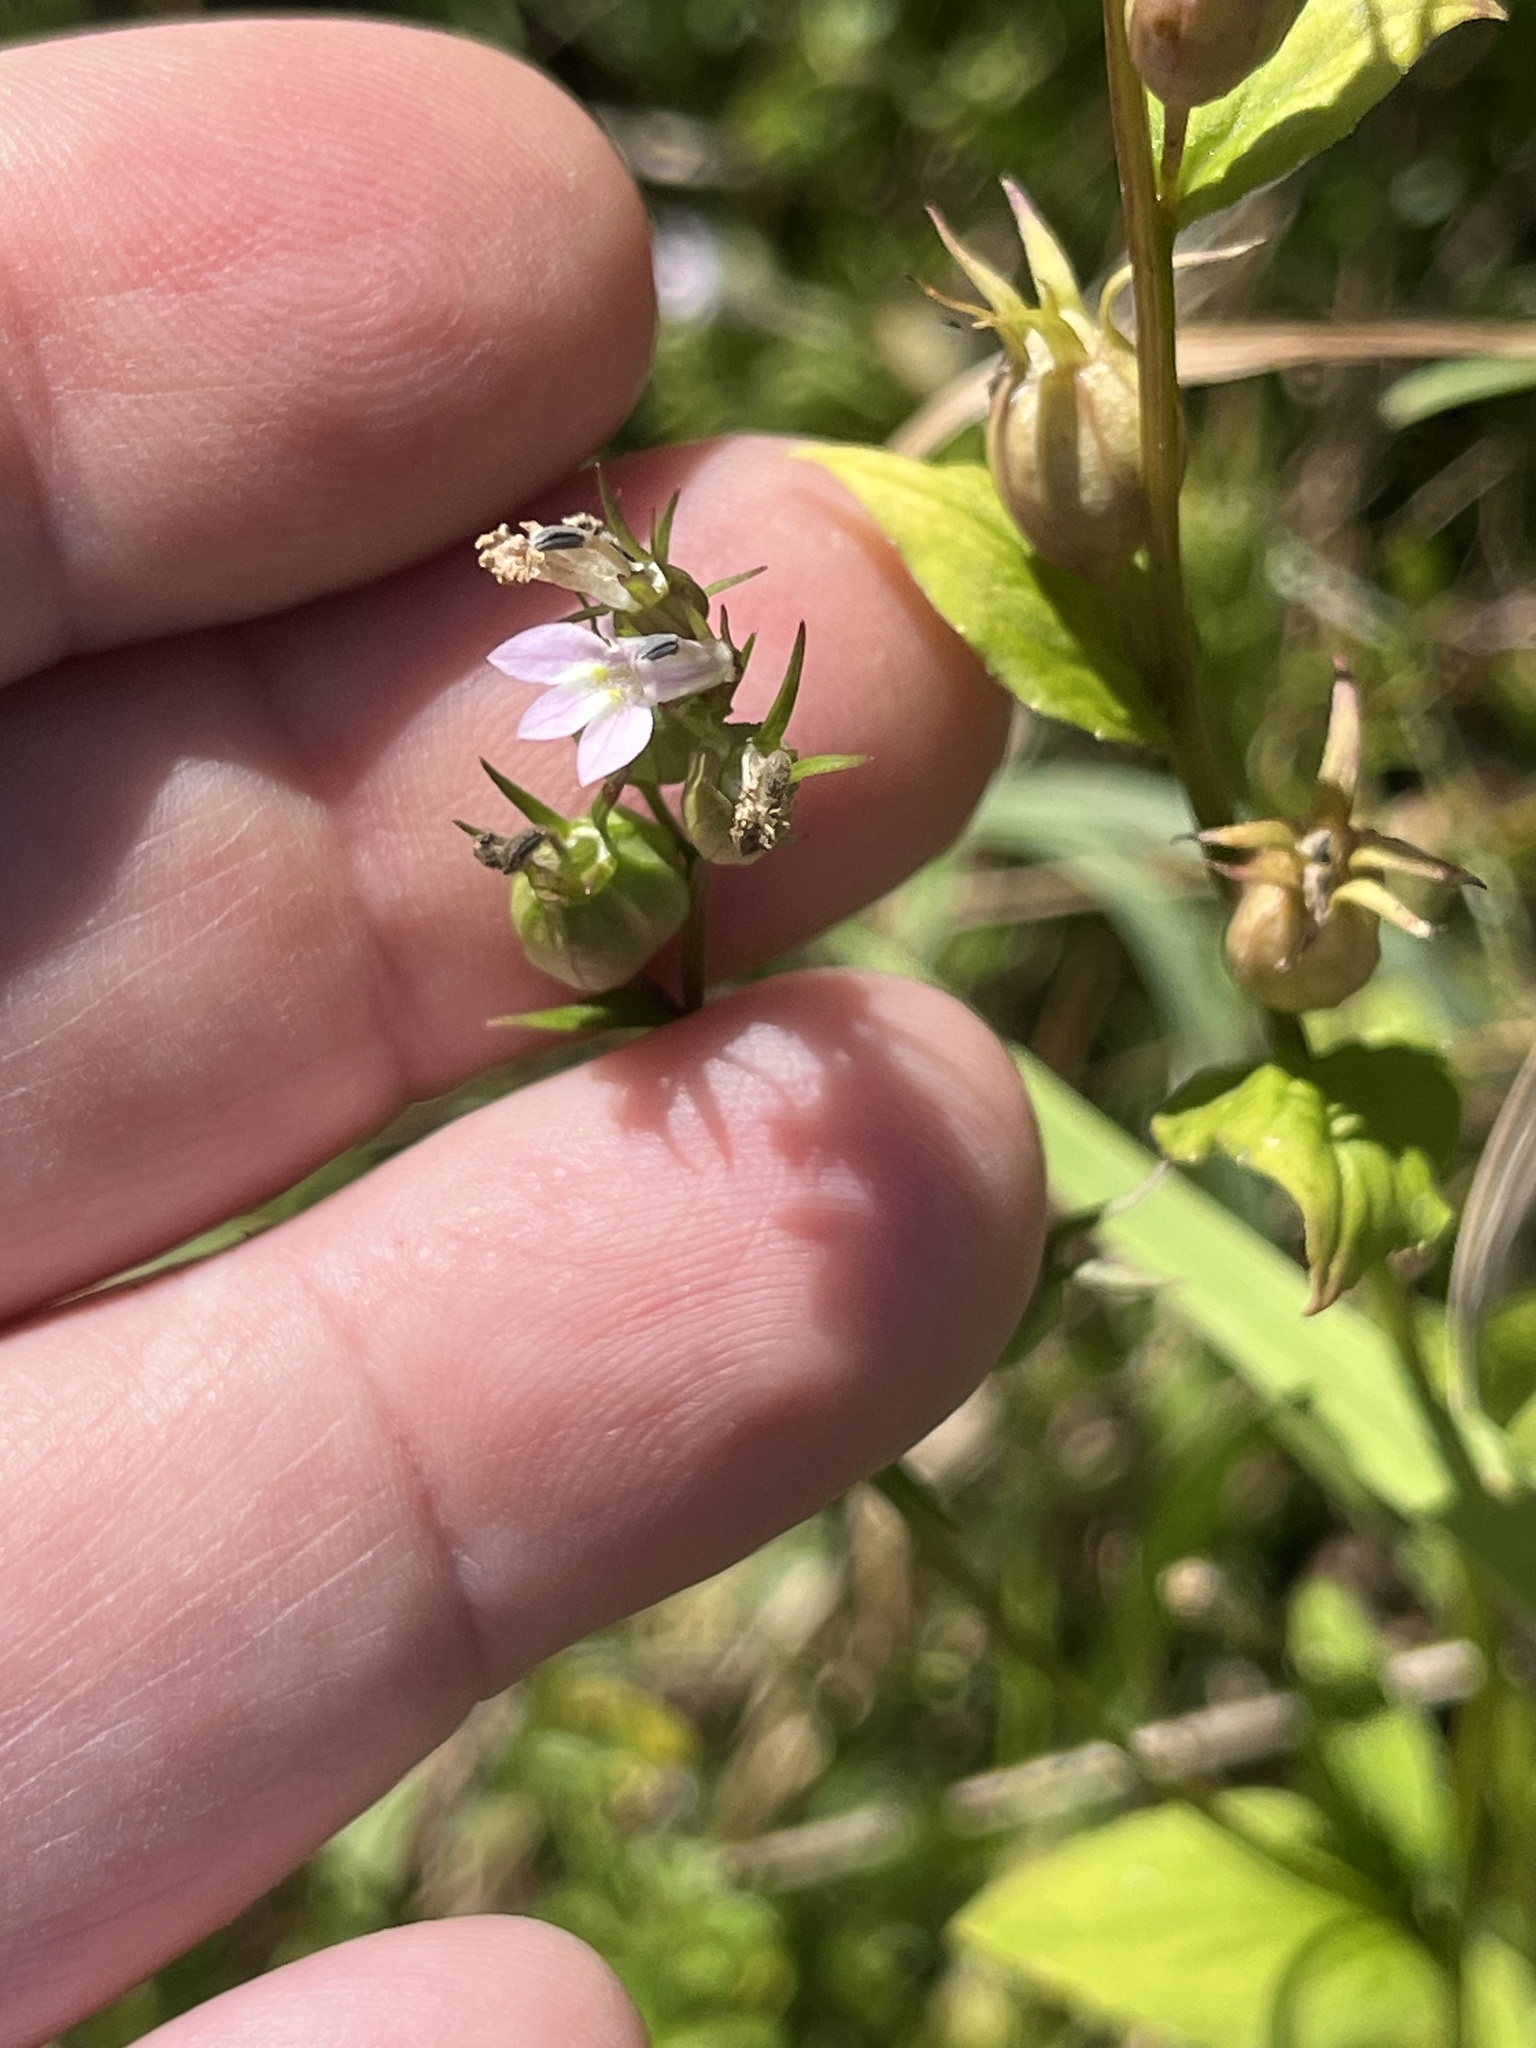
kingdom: Plantae
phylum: Tracheophyta
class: Magnoliopsida
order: Asterales
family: Campanulaceae
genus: Lobelia
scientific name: Lobelia inflata
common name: Indian tobacco
